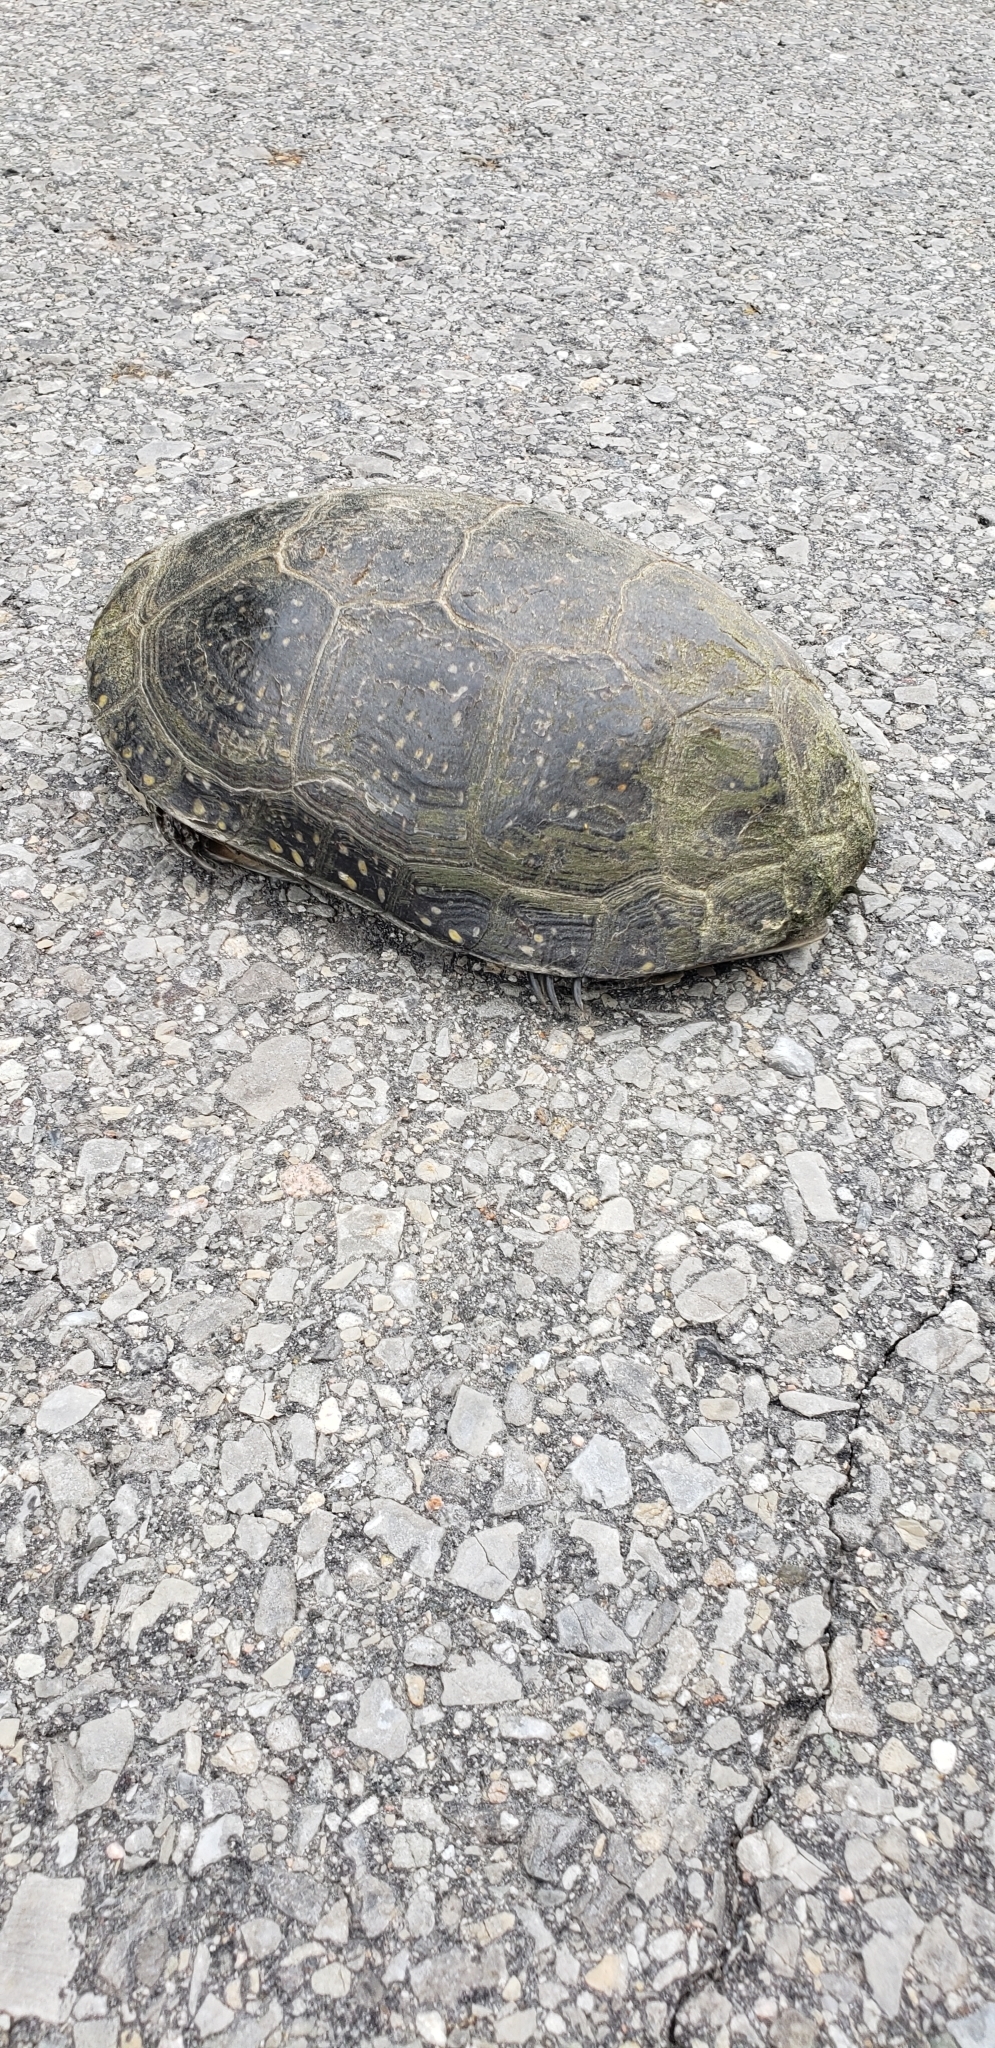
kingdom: Animalia
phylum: Chordata
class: Testudines
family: Emydidae
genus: Emys
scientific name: Emys blandingii
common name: Blanding's turtle
